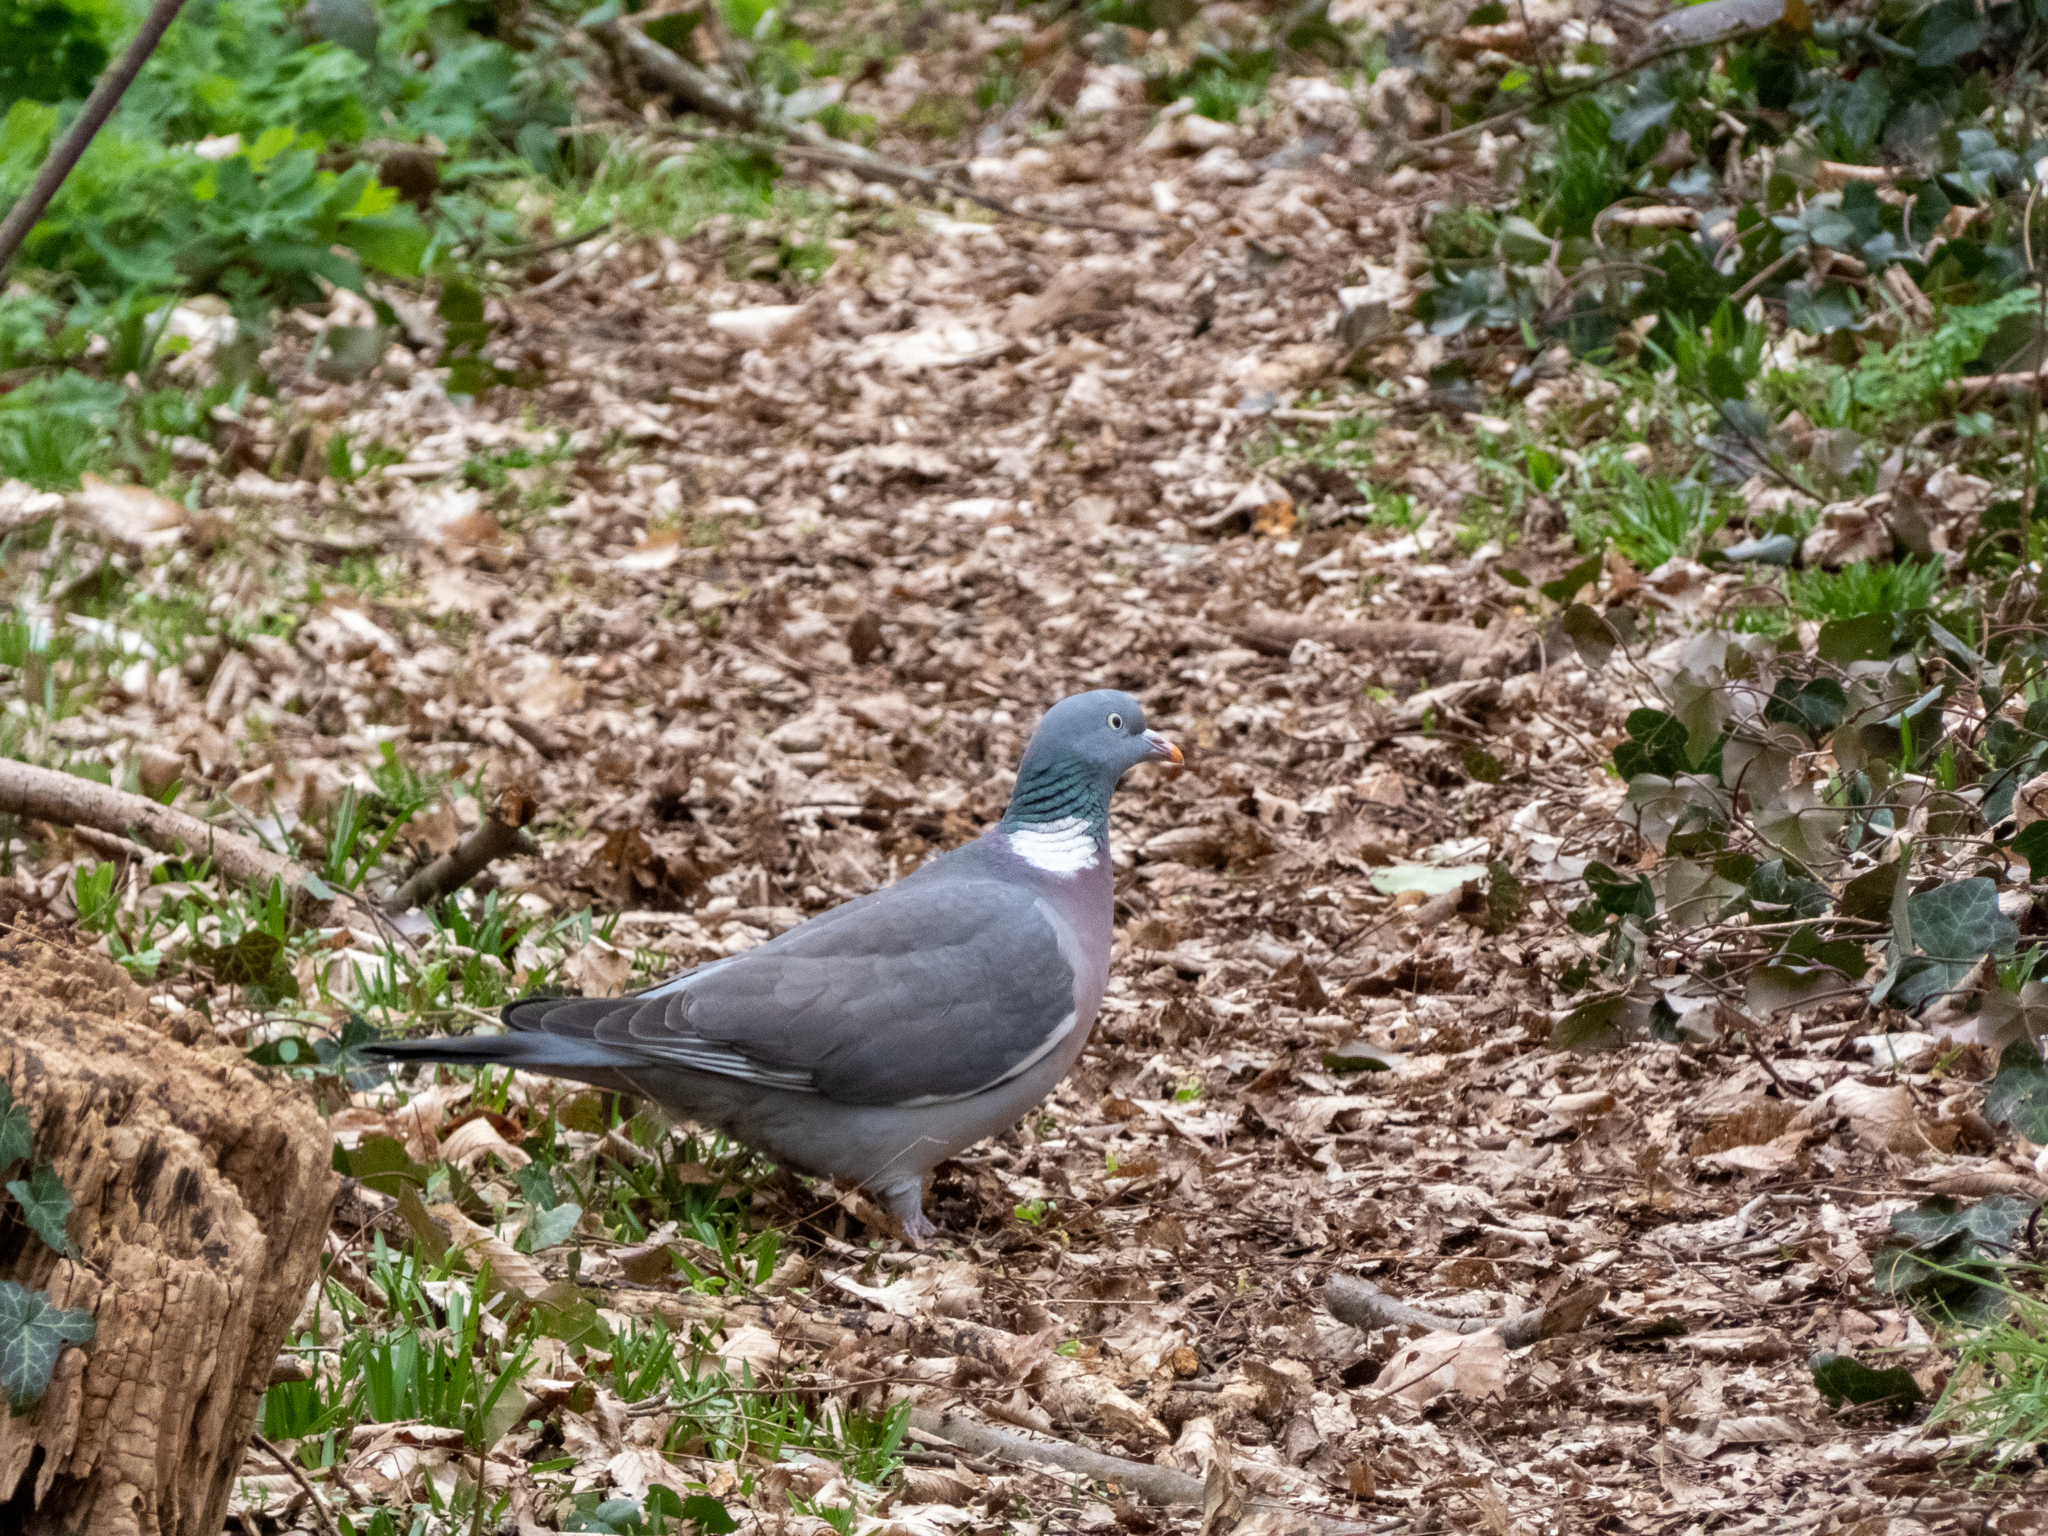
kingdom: Animalia
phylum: Chordata
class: Aves
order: Columbiformes
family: Columbidae
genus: Columba
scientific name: Columba palumbus
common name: Common wood pigeon
